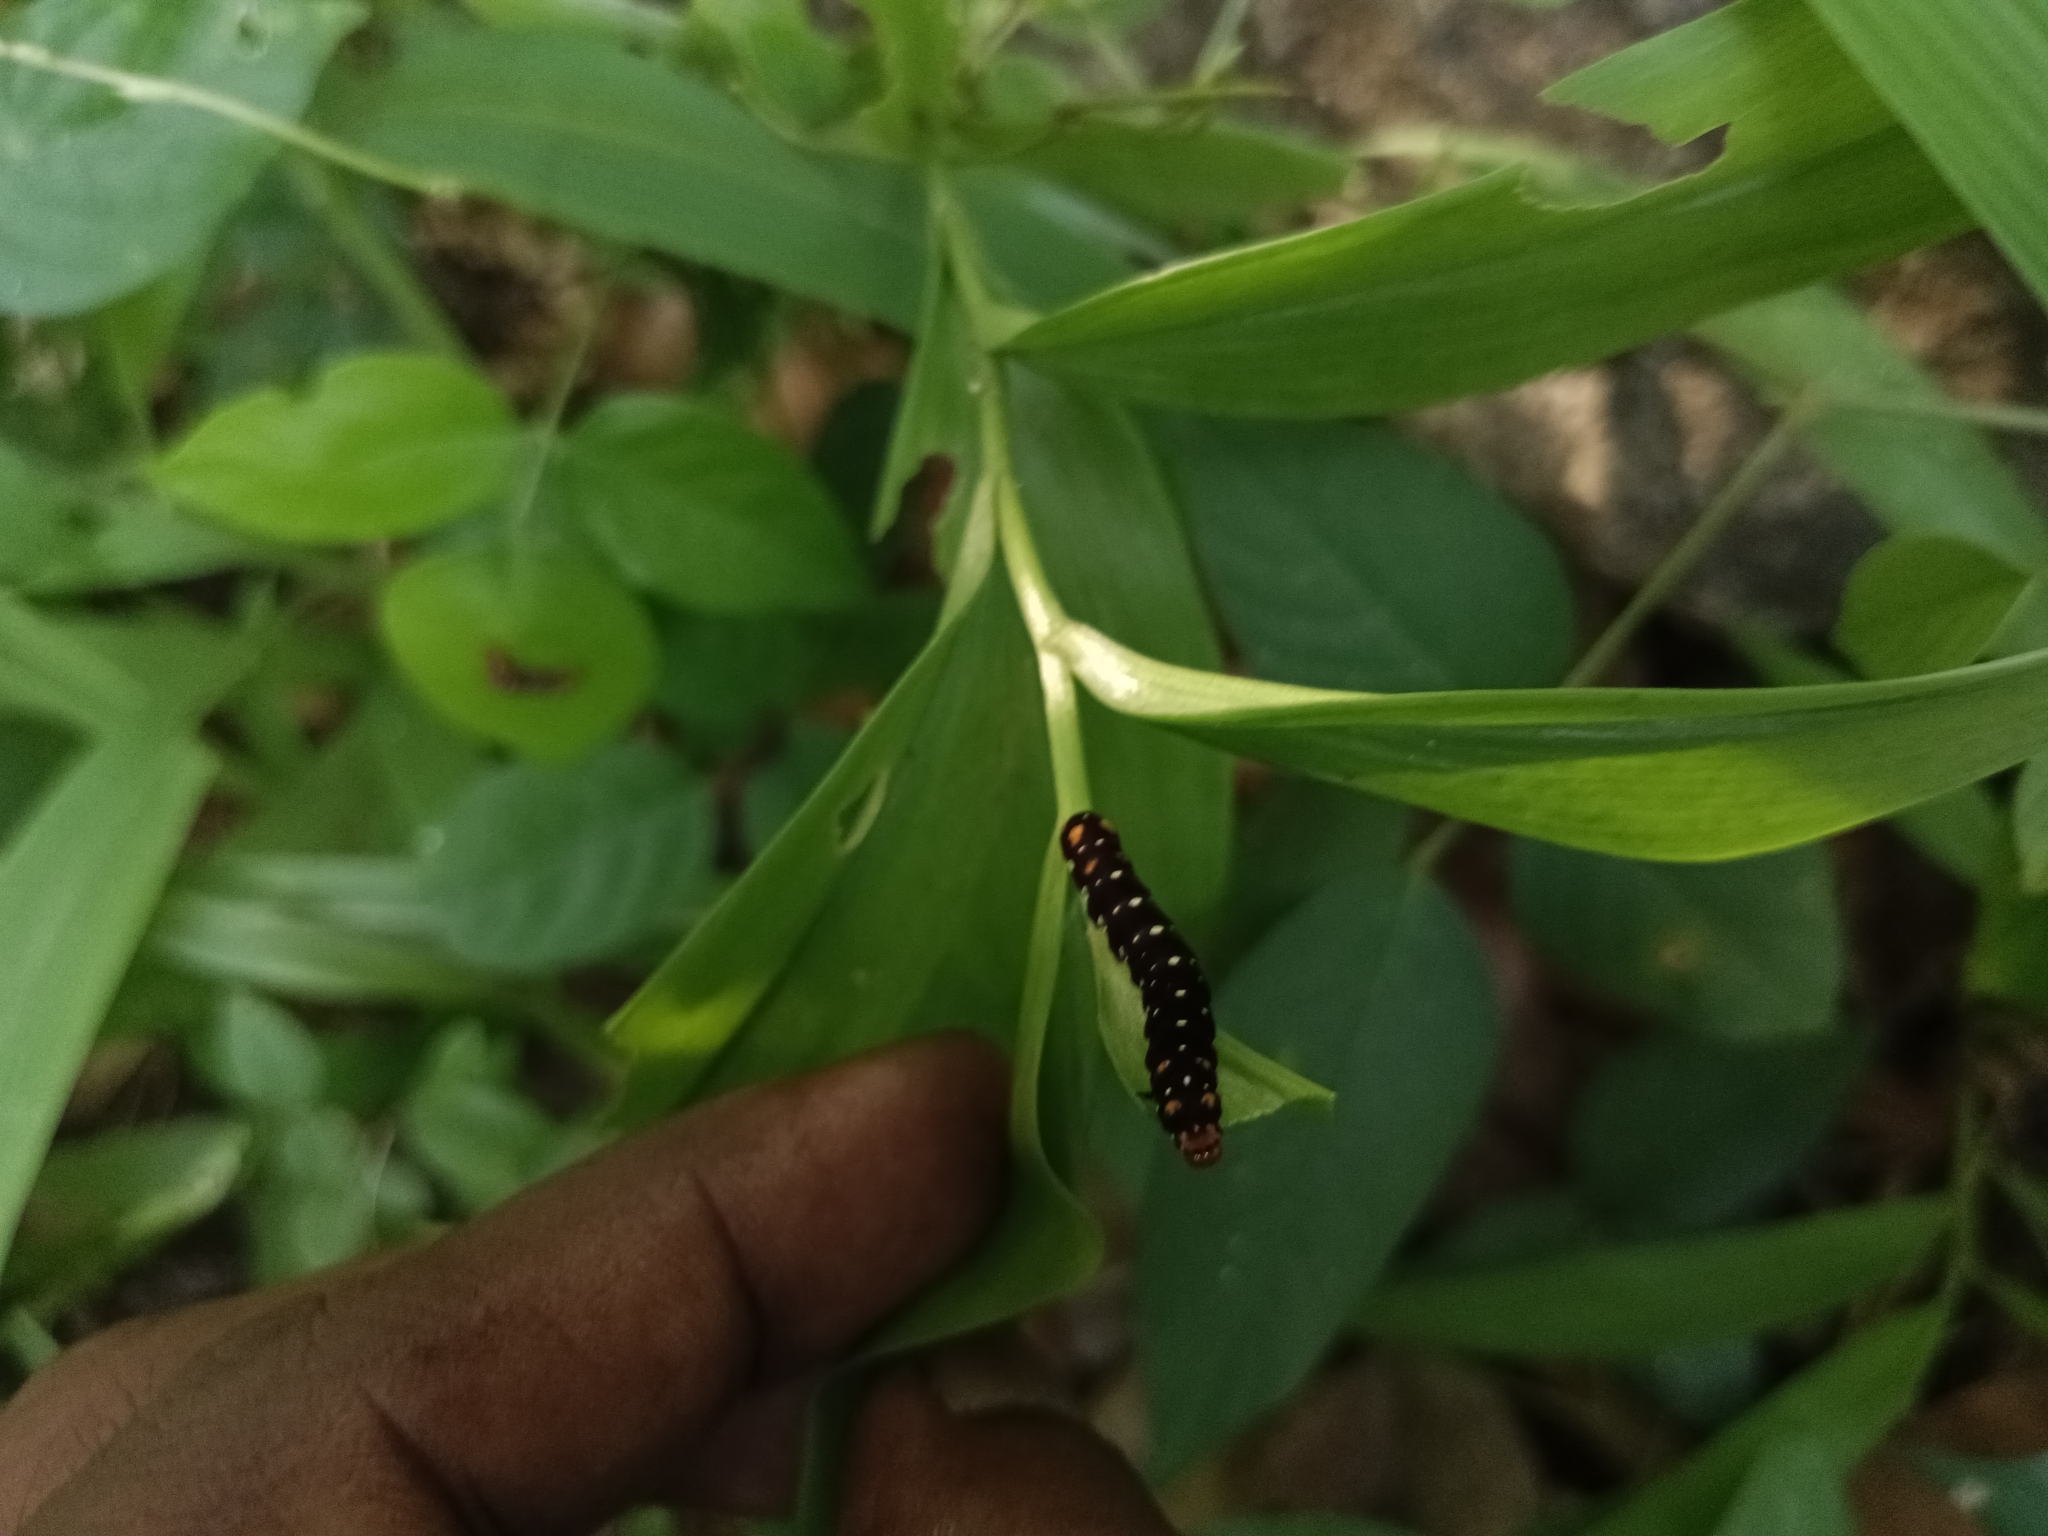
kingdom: Animalia
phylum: Arthropoda
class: Insecta
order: Lepidoptera
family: Noctuidae
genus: Polytela
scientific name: Polytela gloriosae
